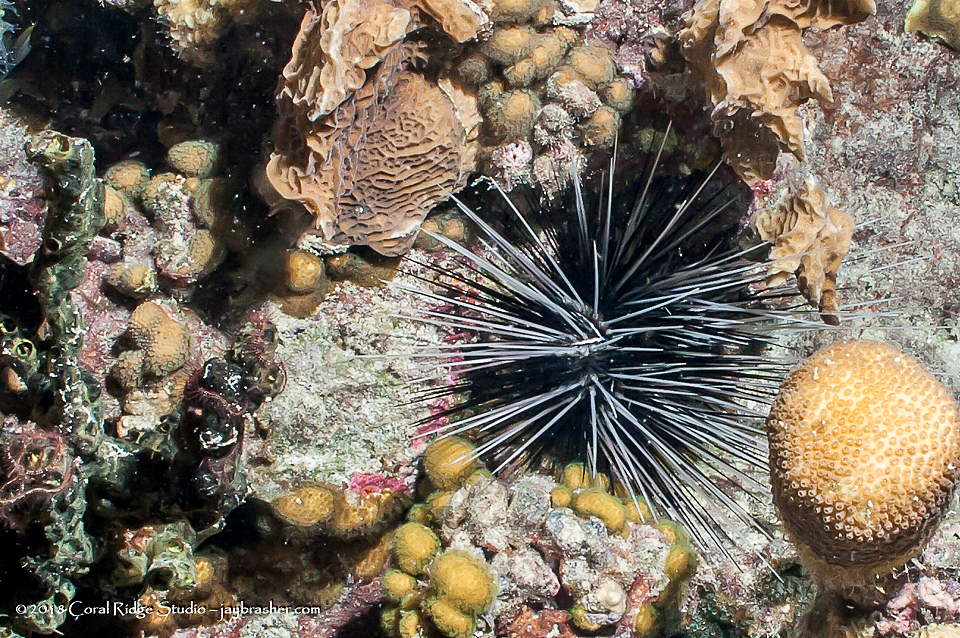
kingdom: Animalia
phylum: Echinodermata
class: Echinoidea
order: Diadematoida
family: Diadematidae
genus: Diadema
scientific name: Diadema antillarum
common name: Spiny urchin
